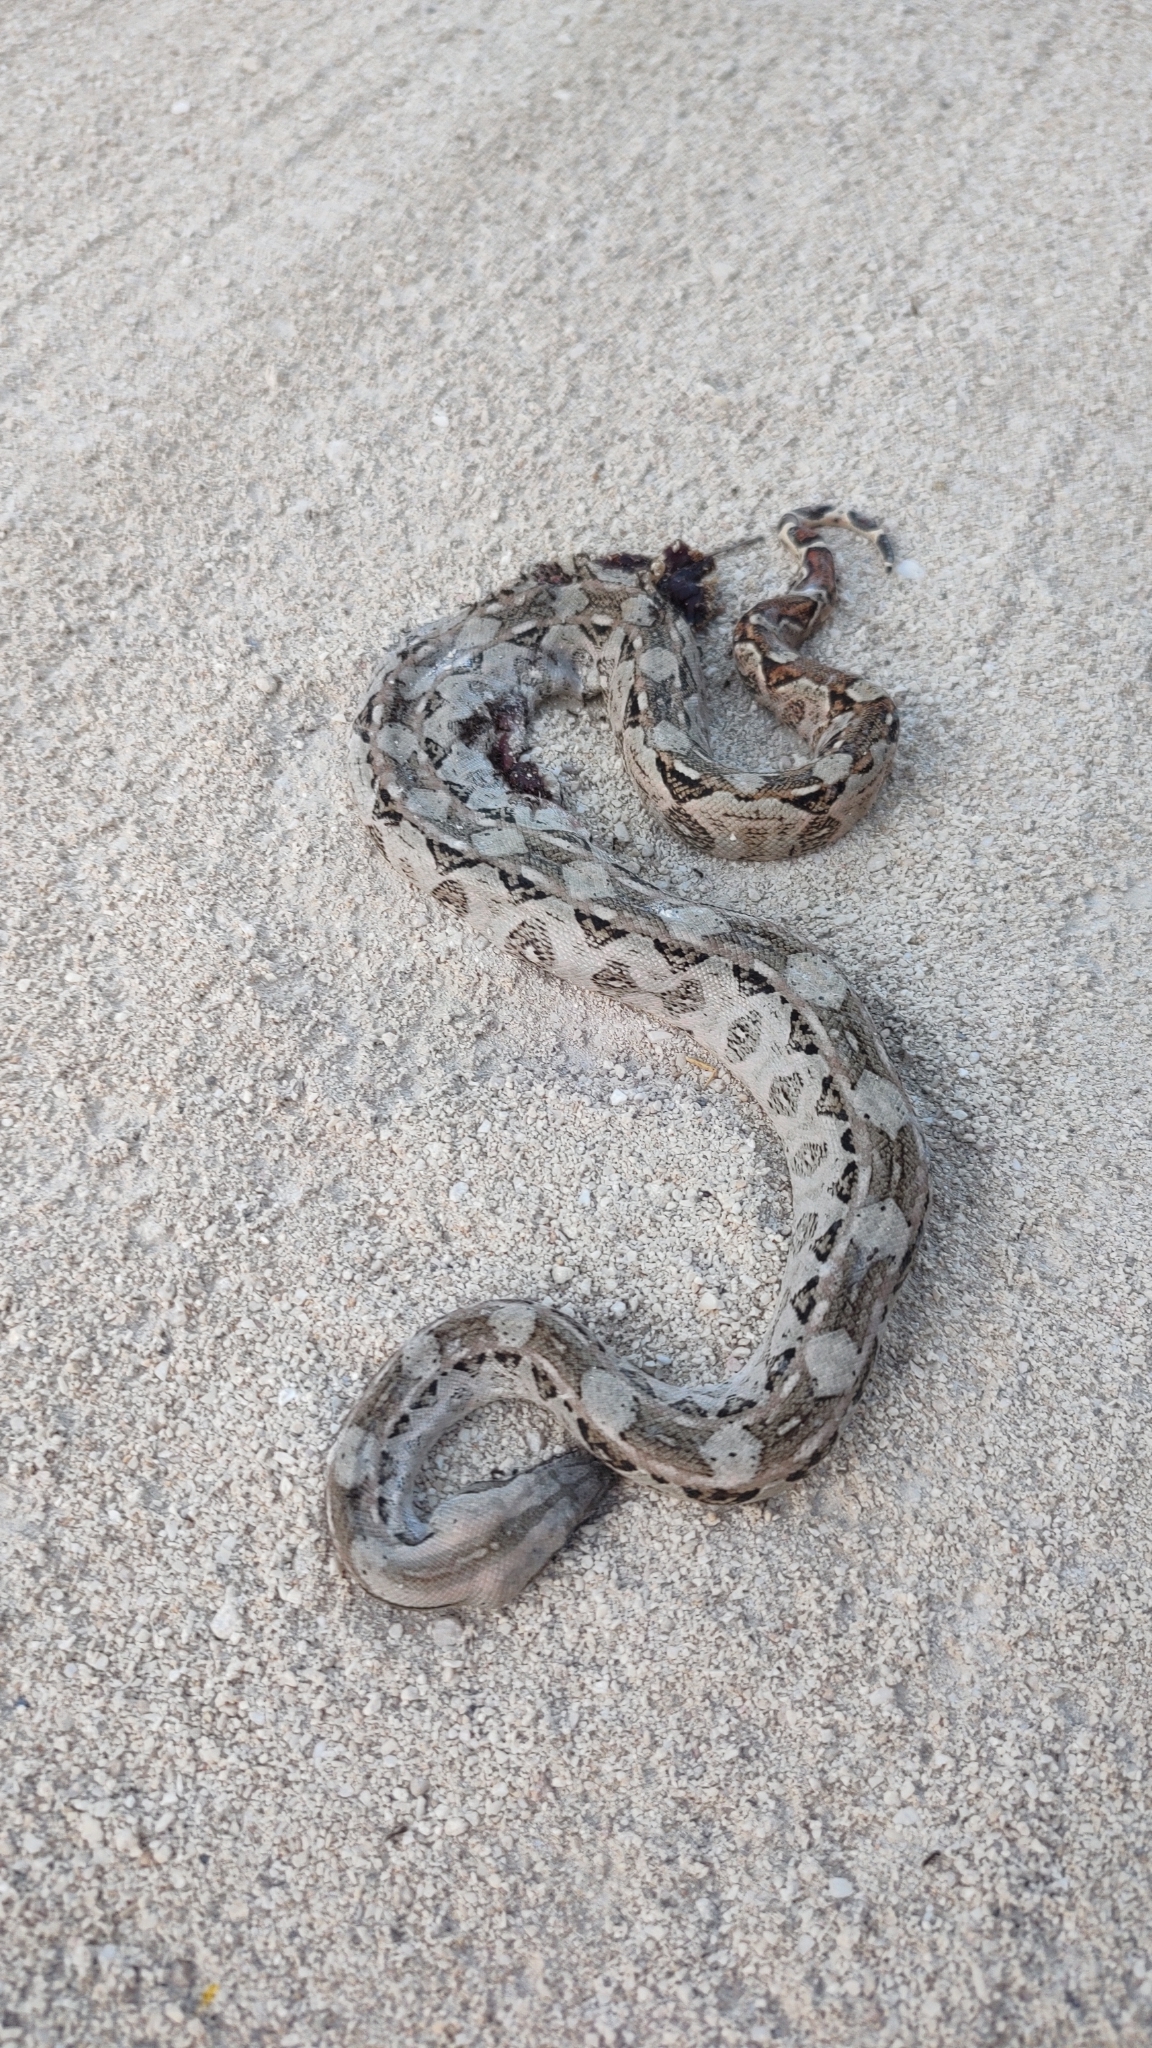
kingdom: Animalia
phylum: Chordata
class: Squamata
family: Boidae
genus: Boa
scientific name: Boa imperator
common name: Central american boa
